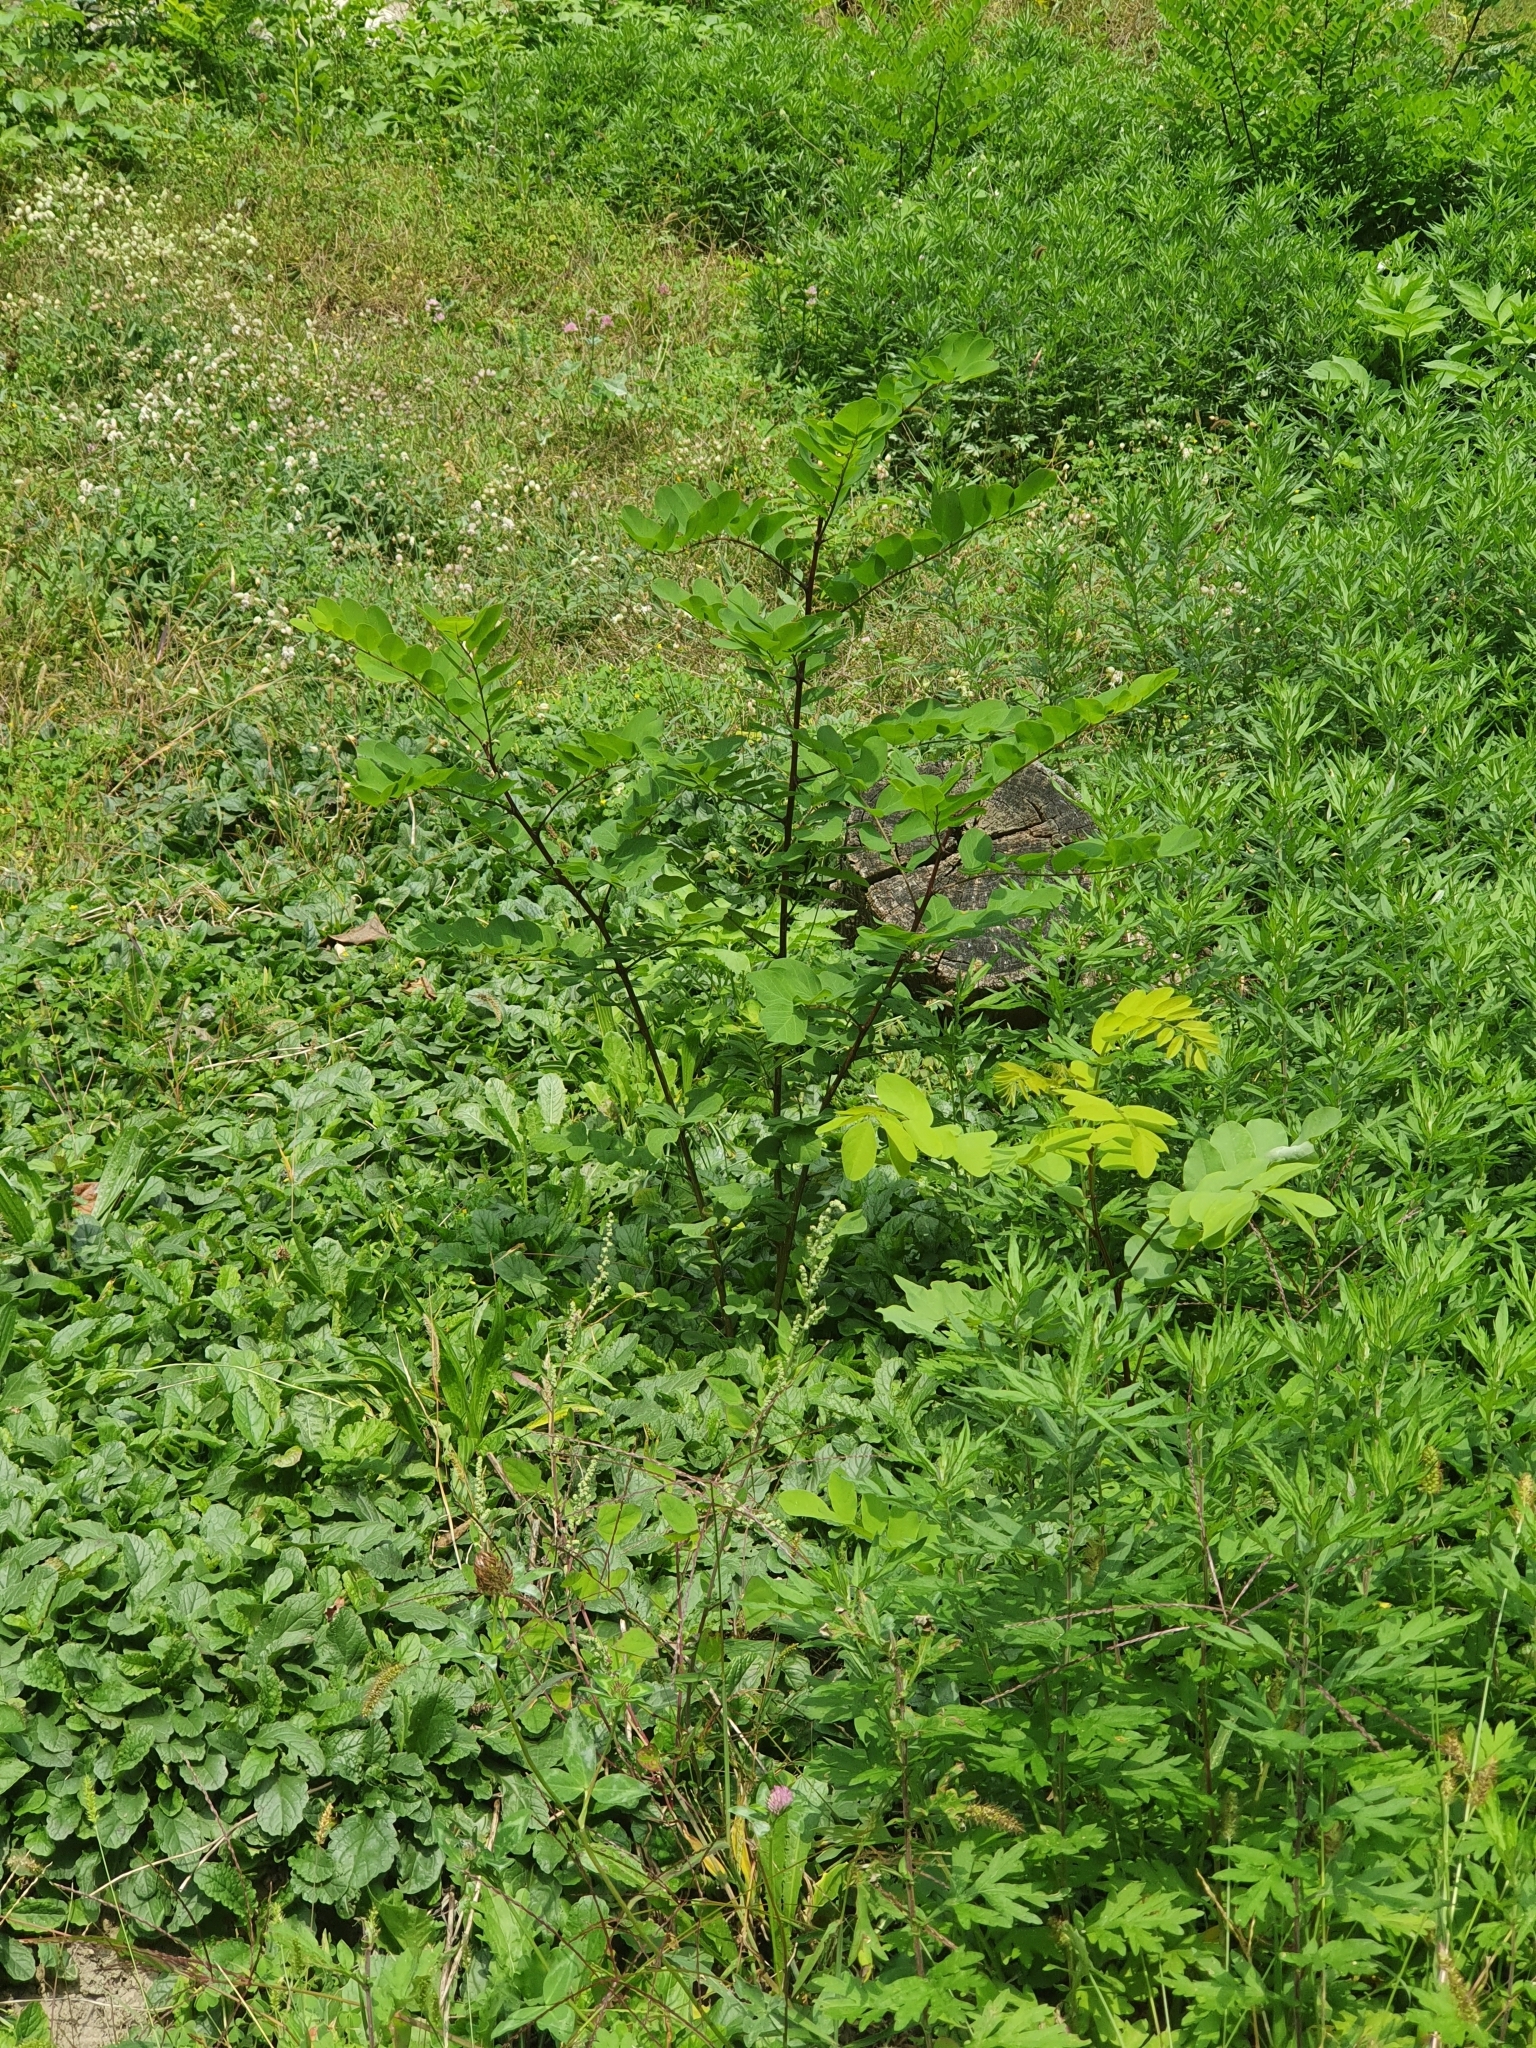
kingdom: Plantae
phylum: Tracheophyta
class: Magnoliopsida
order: Fabales
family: Fabaceae
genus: Robinia
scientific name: Robinia pseudoacacia
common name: Black locust
